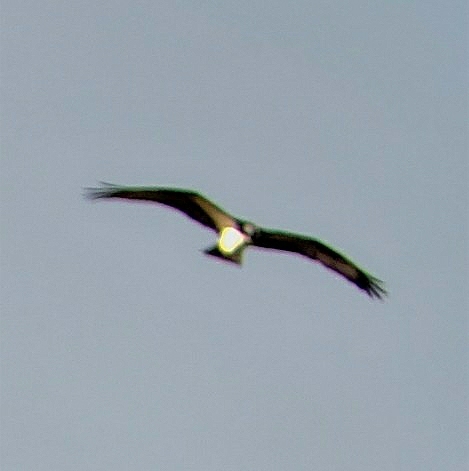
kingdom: Animalia
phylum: Chordata
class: Aves
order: Accipitriformes
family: Pandionidae
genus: Pandion
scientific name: Pandion haliaetus
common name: Osprey
